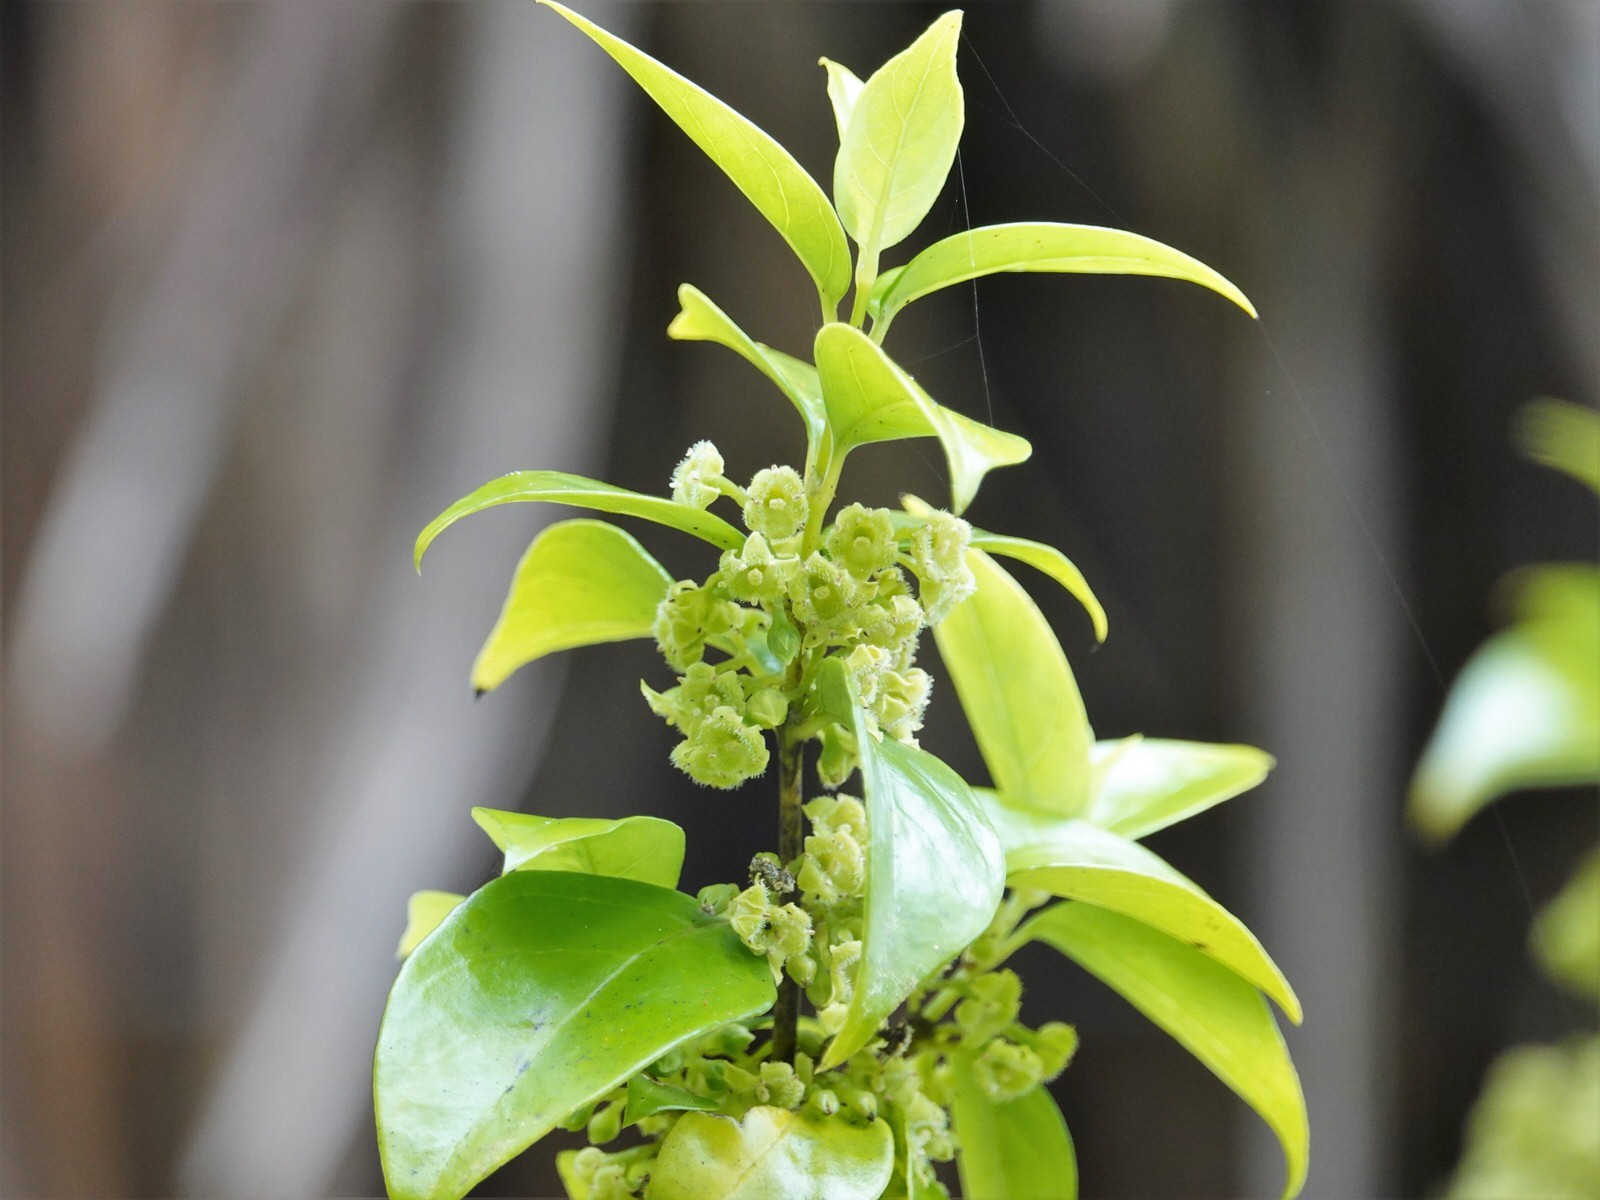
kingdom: Plantae
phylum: Tracheophyta
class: Magnoliopsida
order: Gentianales
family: Loganiaceae
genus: Geniostoma
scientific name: Geniostoma ligustrifolium
